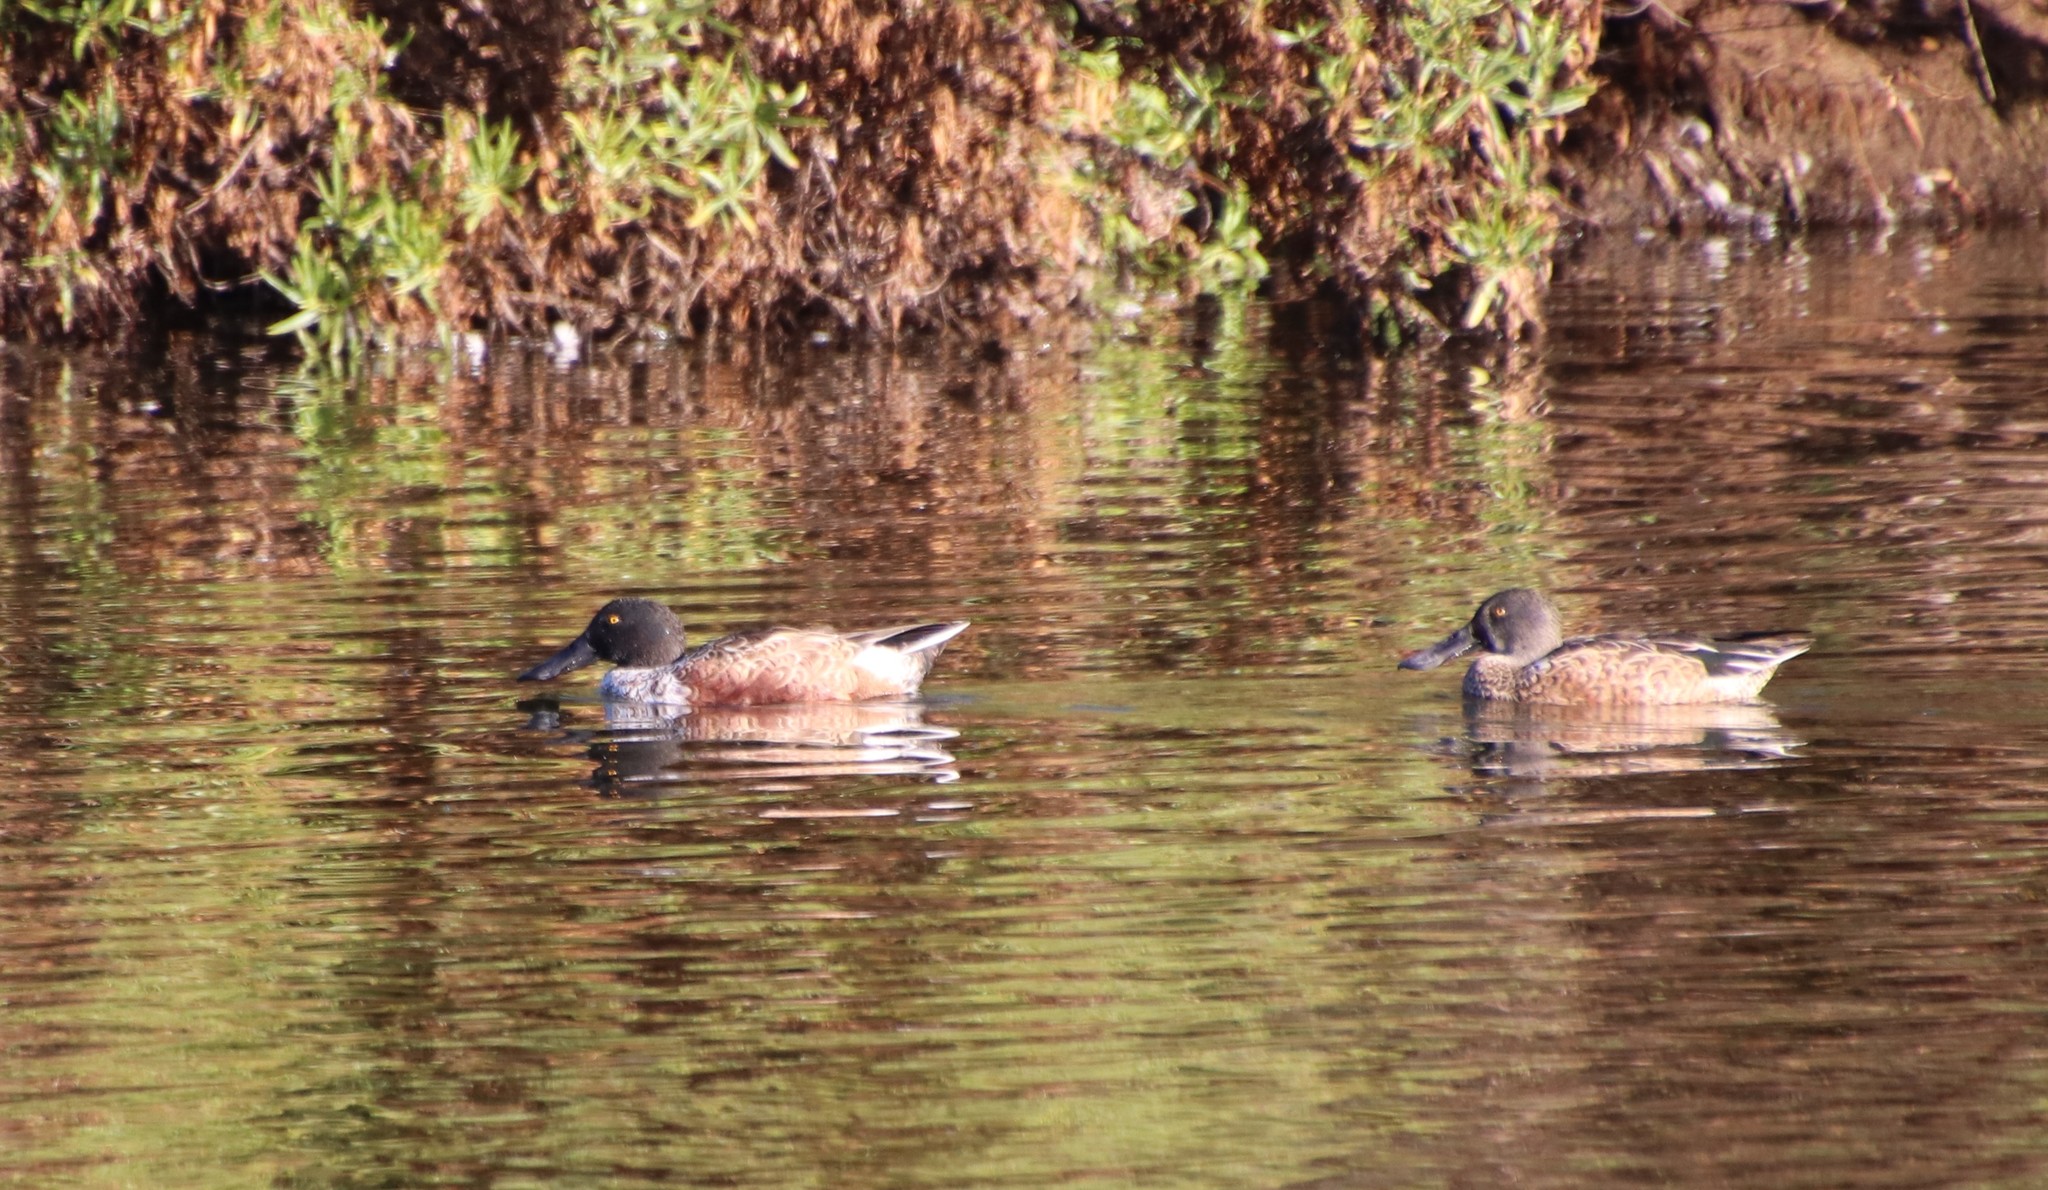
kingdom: Animalia
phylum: Chordata
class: Aves
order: Anseriformes
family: Anatidae
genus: Spatula
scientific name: Spatula clypeata
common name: Northern shoveler
